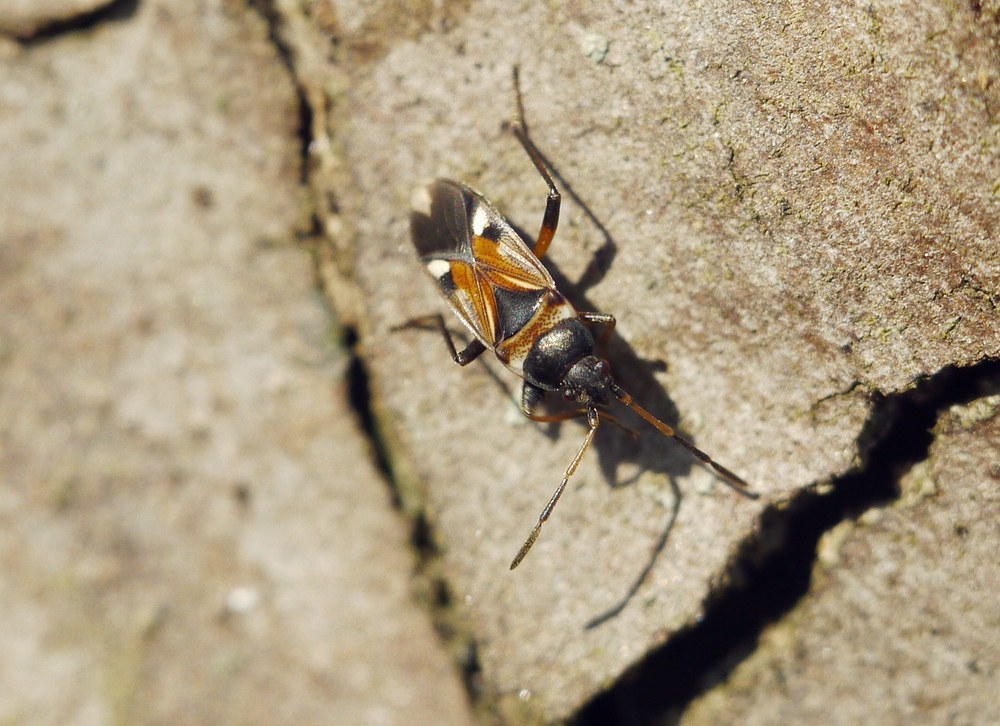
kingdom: Animalia
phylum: Arthropoda
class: Insecta
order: Hemiptera
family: Rhyparochromidae
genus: Raglius
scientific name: Raglius alboacuminatus
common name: Dirt-colored seed bug
